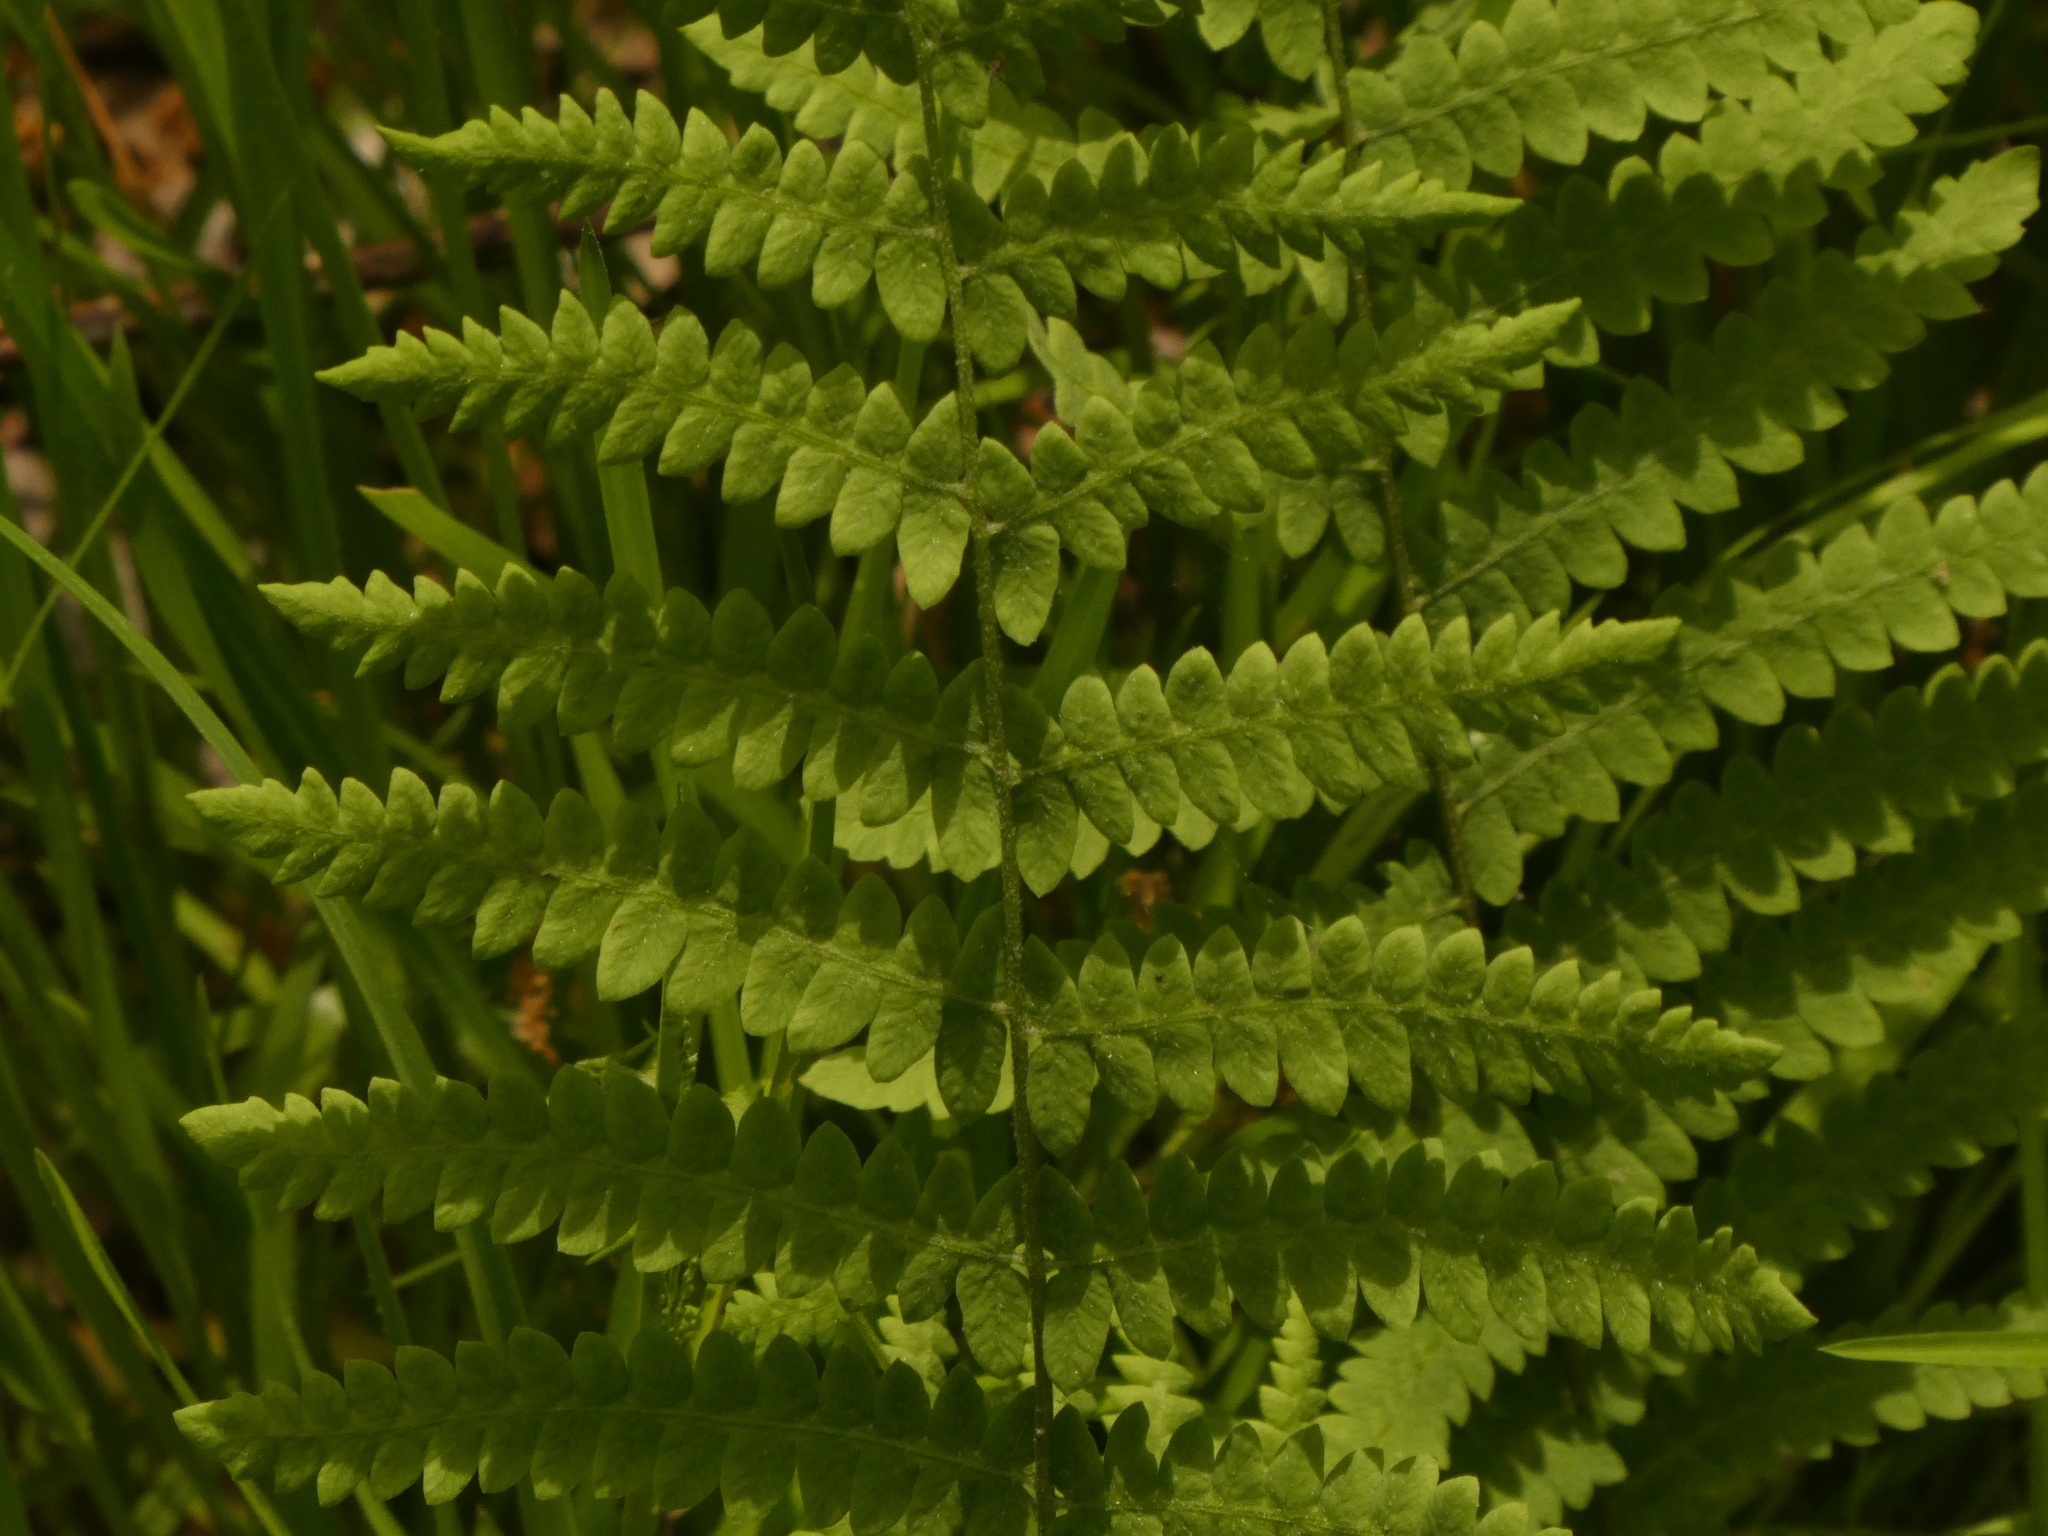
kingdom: Plantae
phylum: Tracheophyta
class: Polypodiopsida
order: Polypodiales
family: Thelypteridaceae
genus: Thelypteris
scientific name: Thelypteris palustris
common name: Marsh fern
